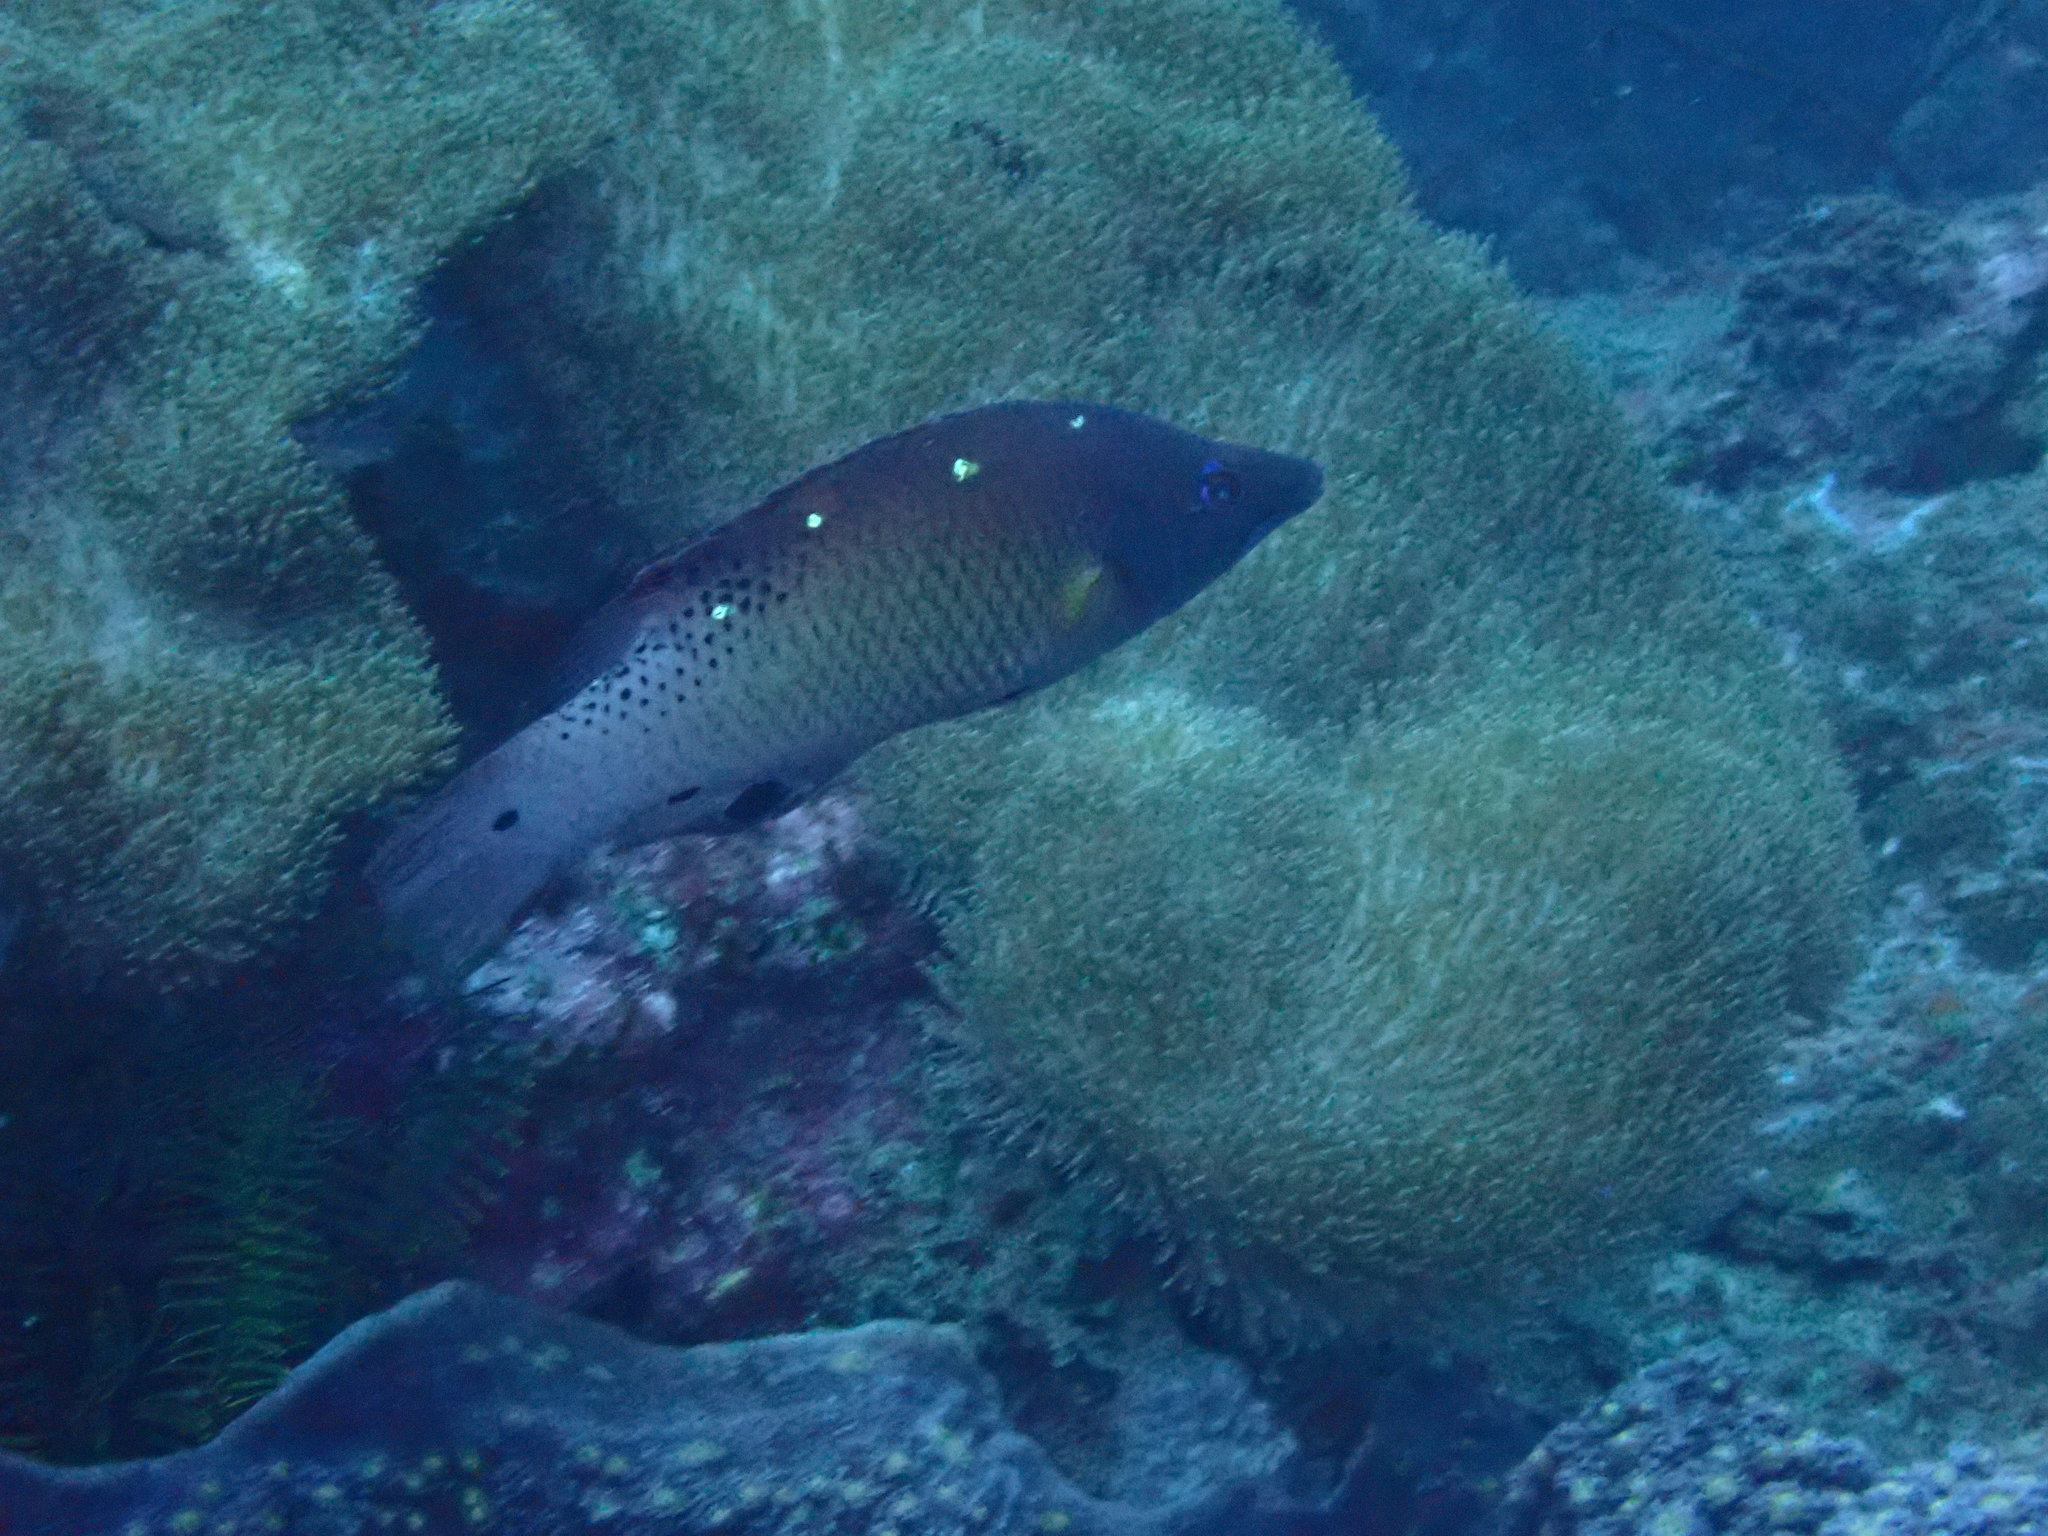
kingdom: Animalia
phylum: Chordata
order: Perciformes
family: Labridae
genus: Bodianus
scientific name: Bodianus dictynna
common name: Diana's hogfish
